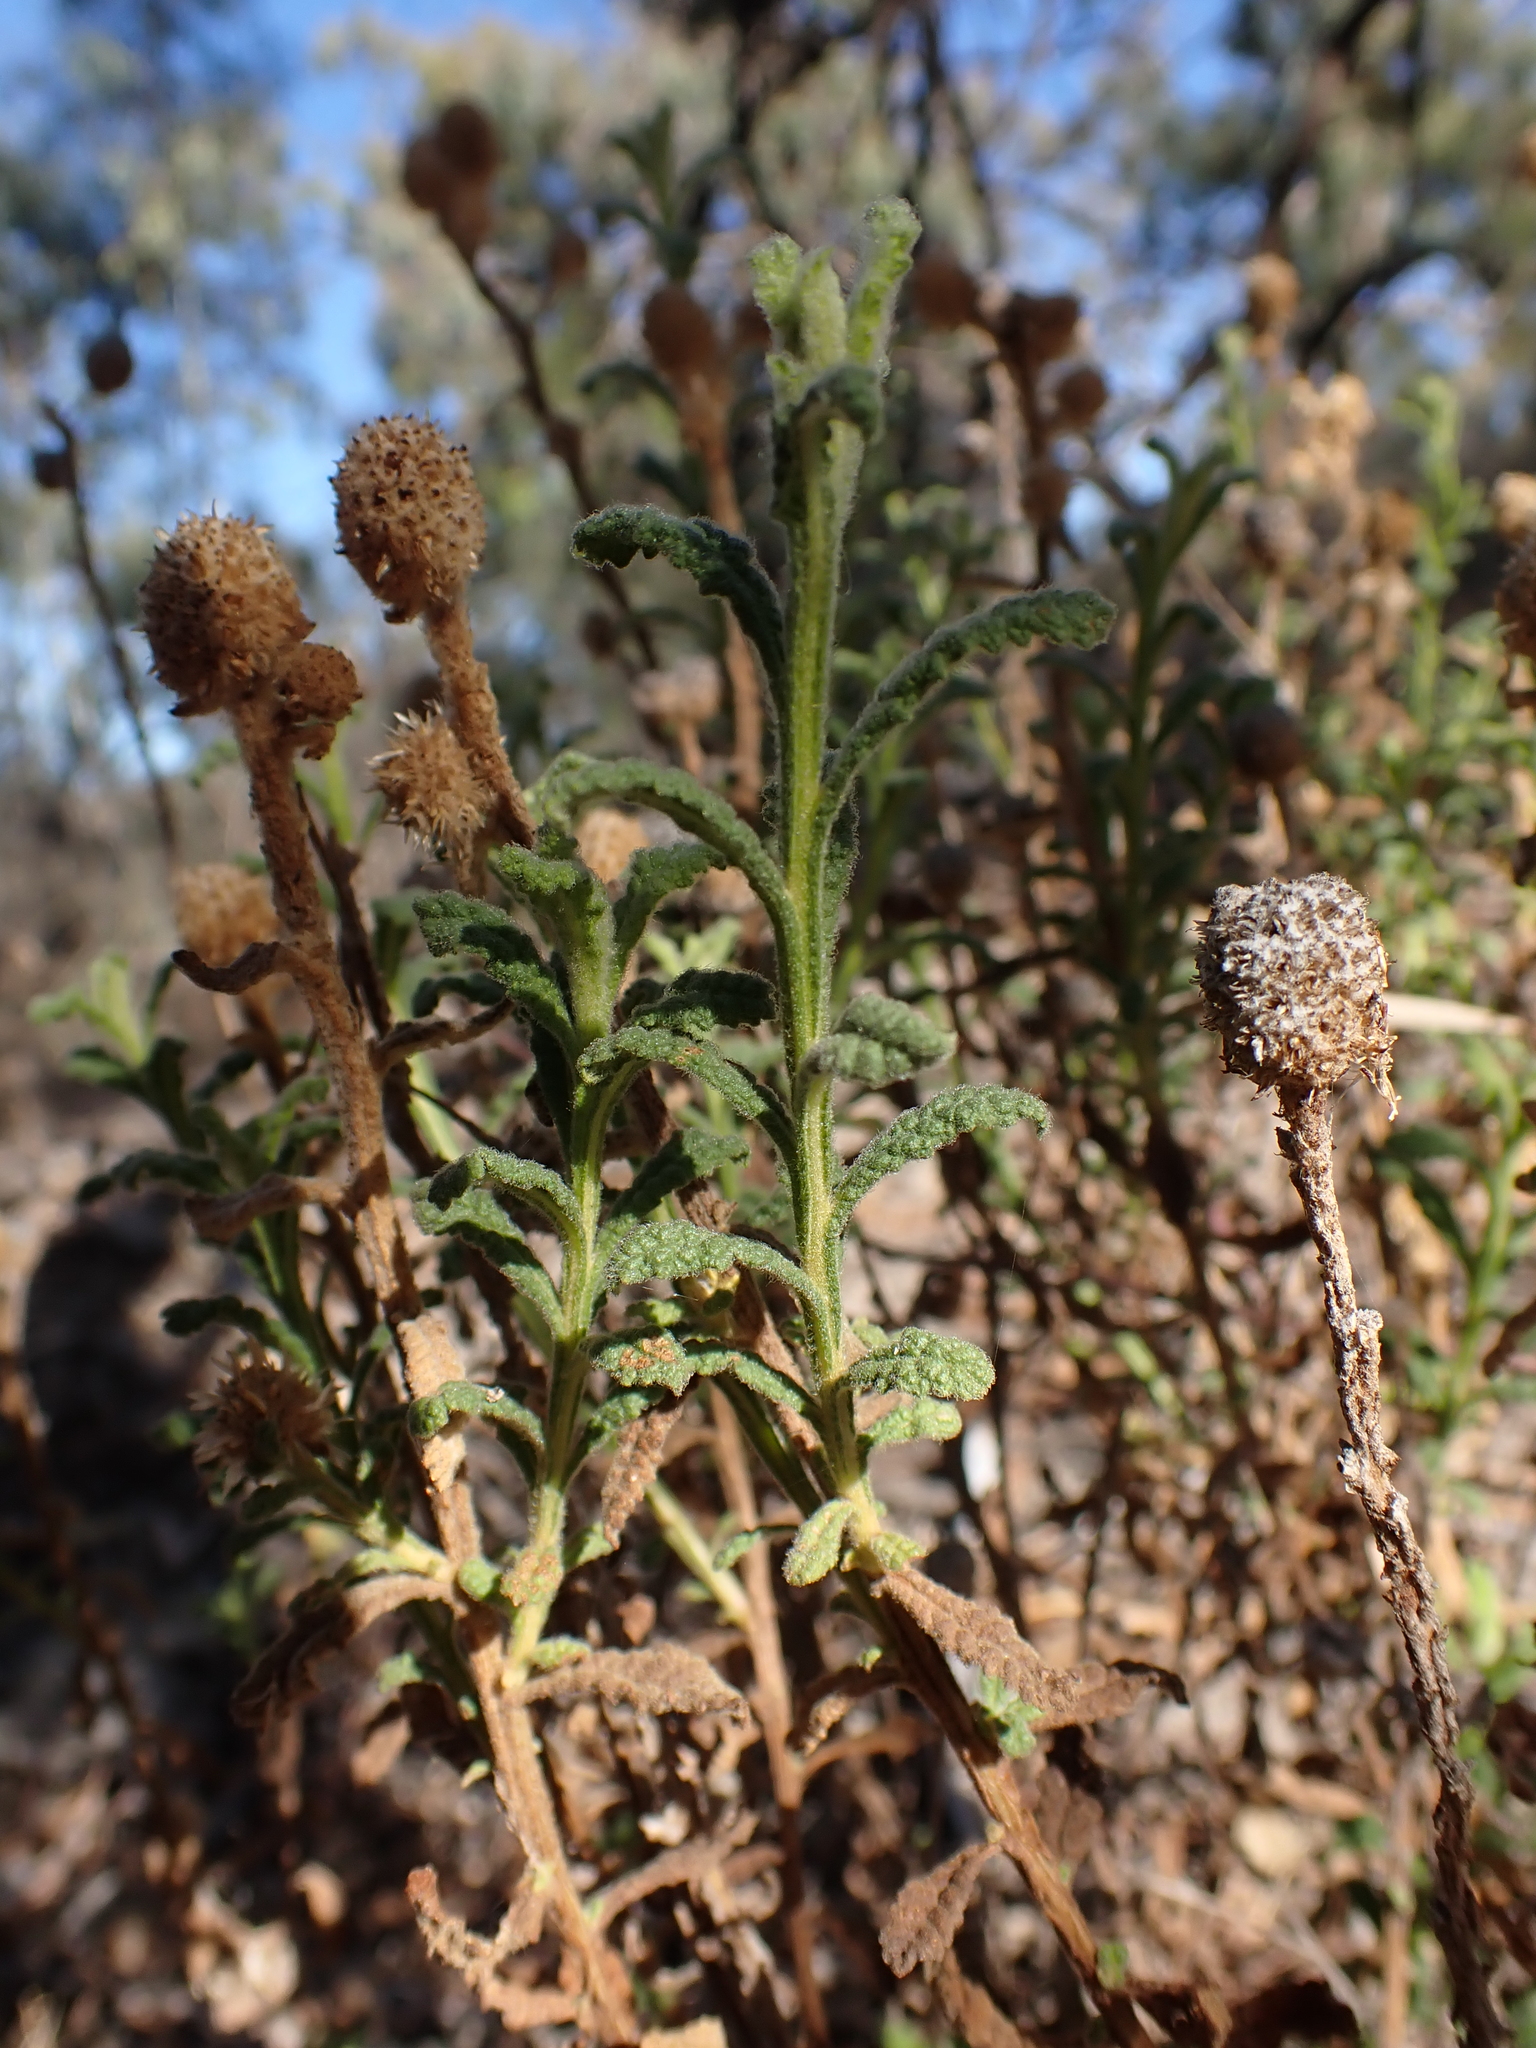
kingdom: Plantae
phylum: Tracheophyta
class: Magnoliopsida
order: Asterales
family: Asteraceae
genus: Pterocaulon
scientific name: Pterocaulon sphacelatum
